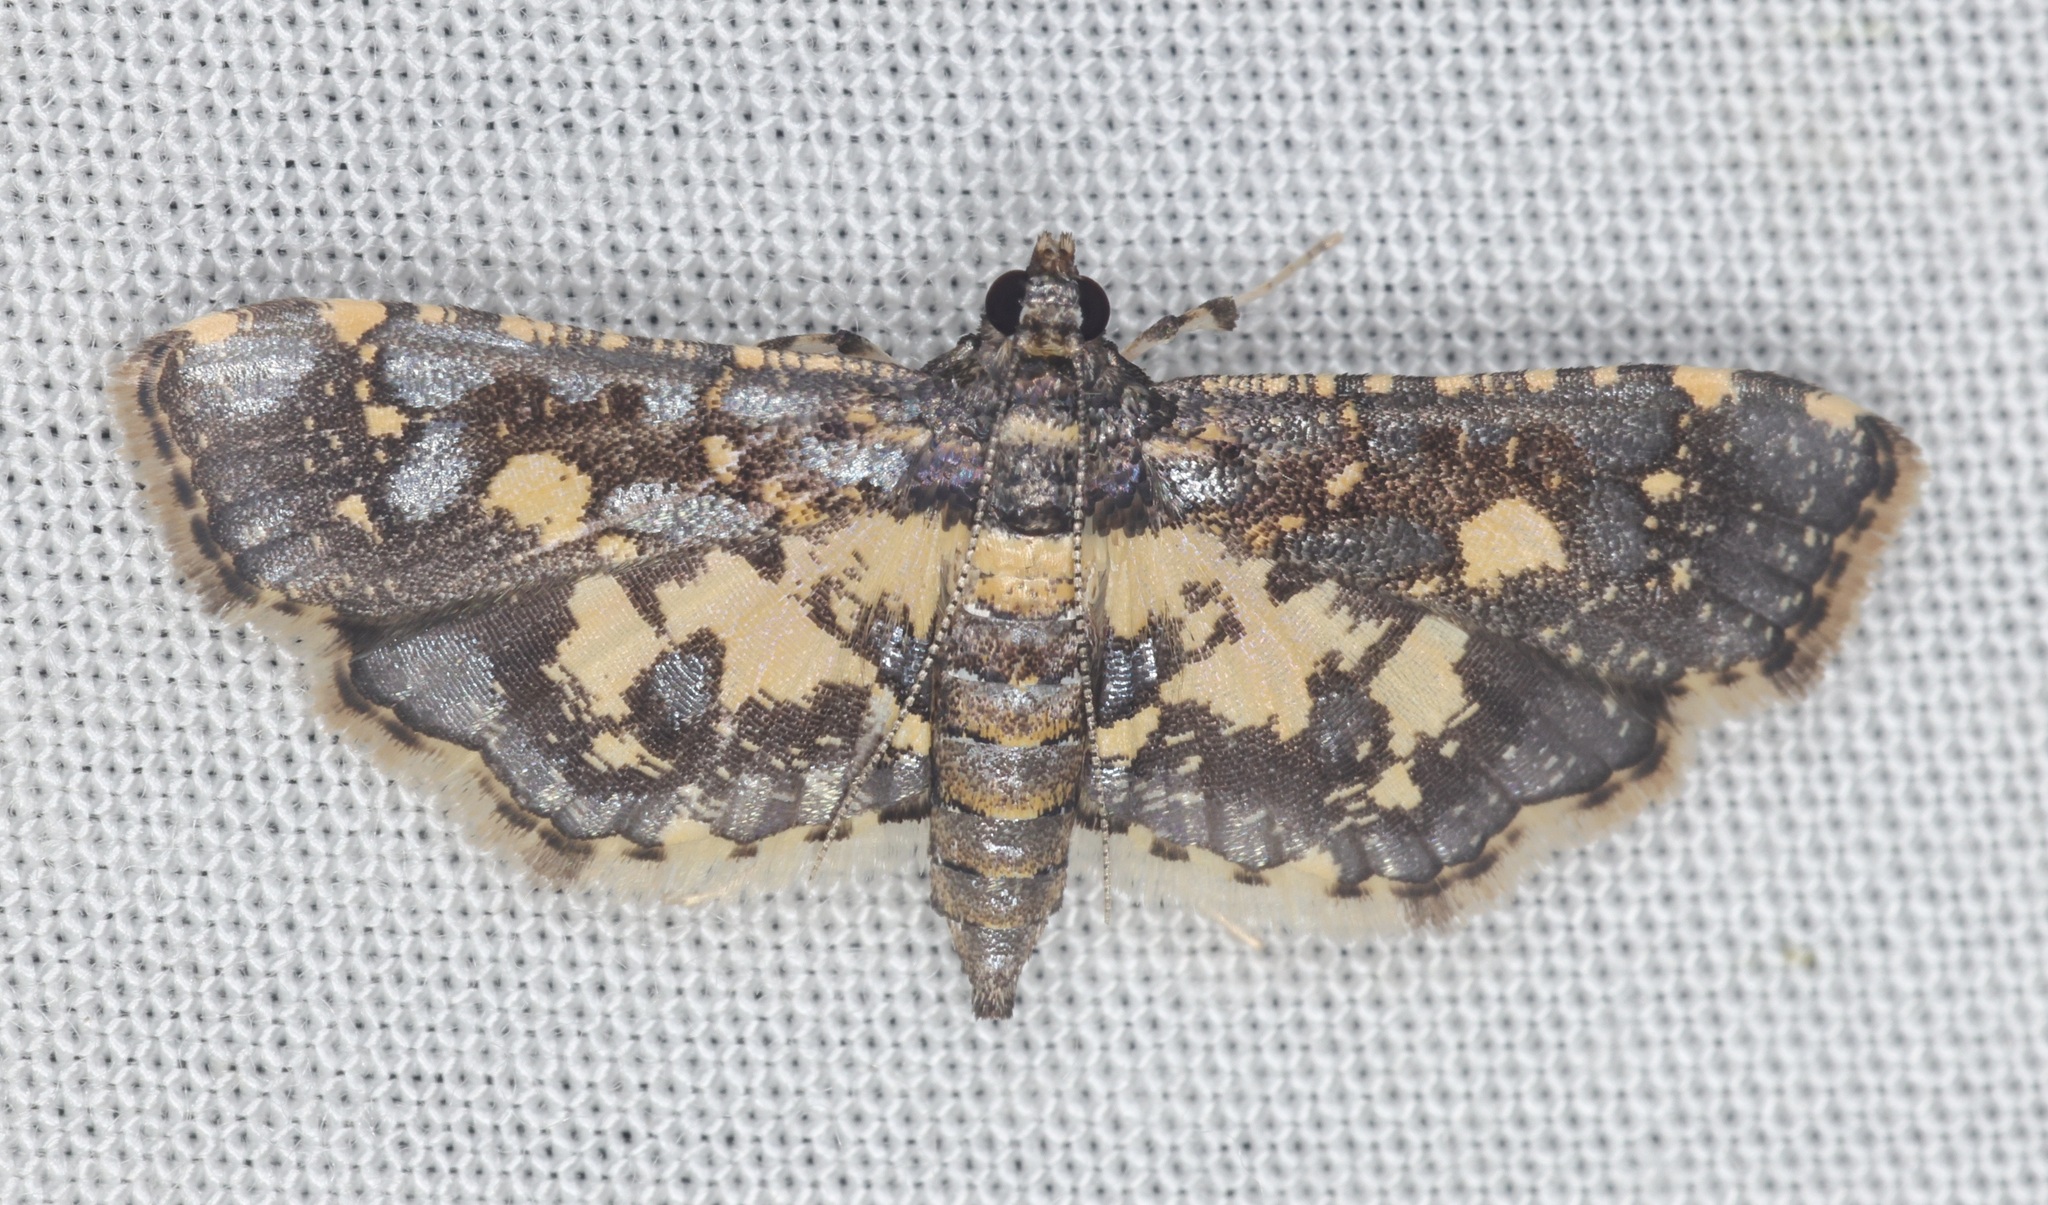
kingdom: Animalia
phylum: Arthropoda
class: Insecta
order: Lepidoptera
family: Crambidae
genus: Eurrhyparodes
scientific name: Eurrhyparodes bracteolalis
